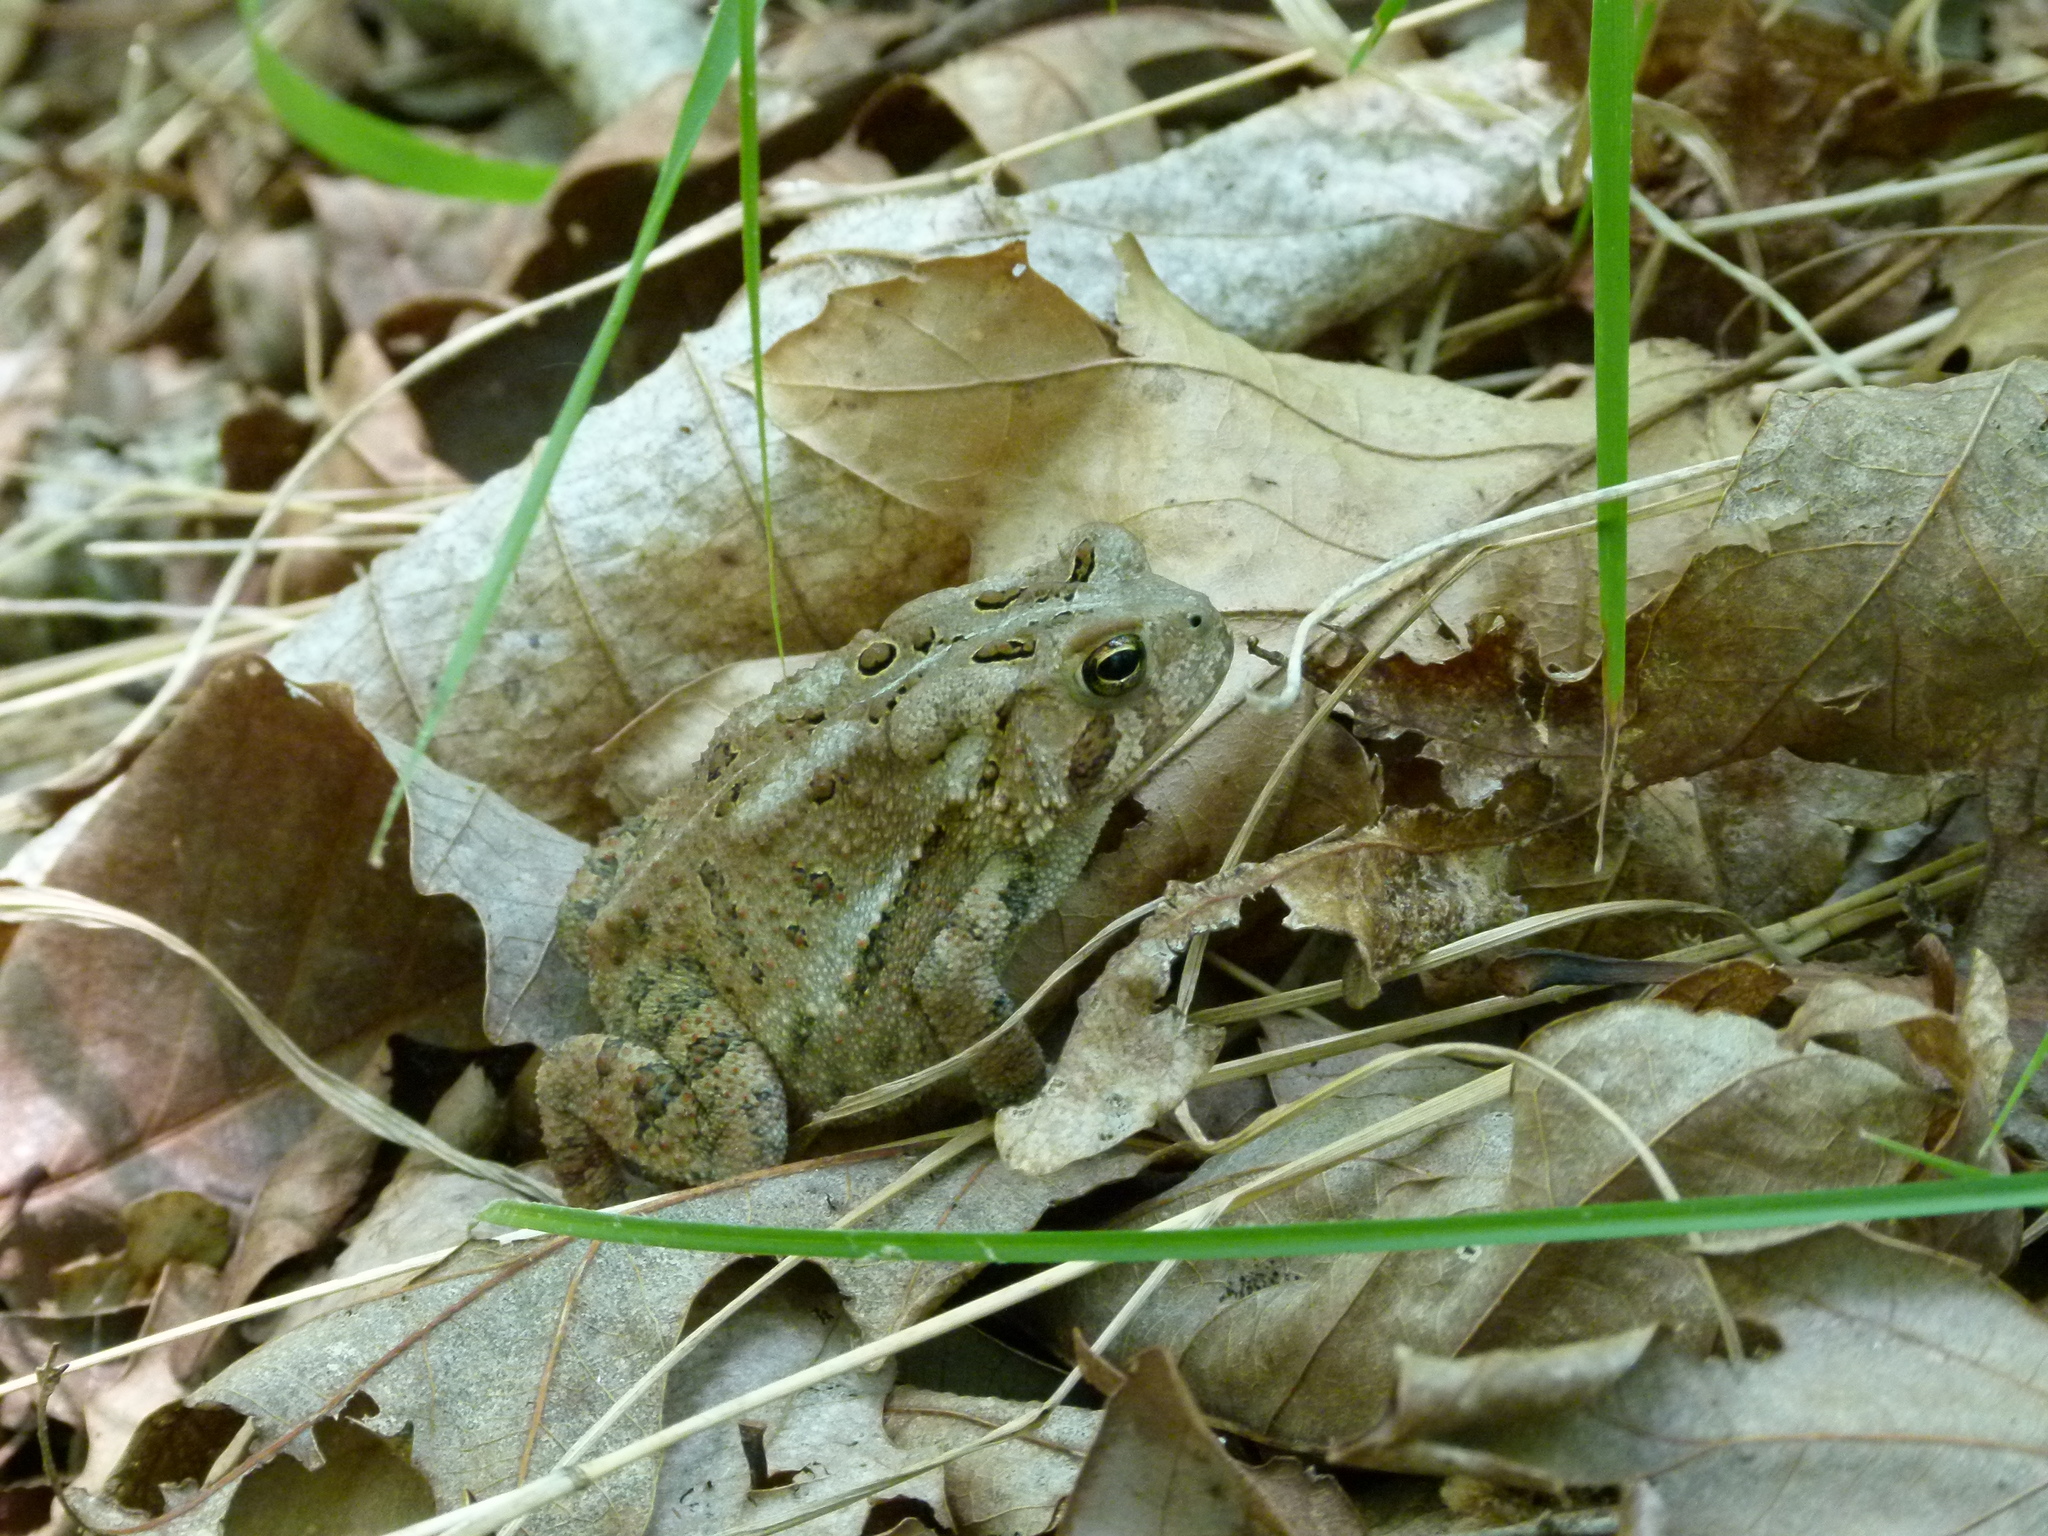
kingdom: Animalia
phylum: Chordata
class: Amphibia
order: Anura
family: Bufonidae
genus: Anaxyrus
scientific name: Anaxyrus americanus
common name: American toad
